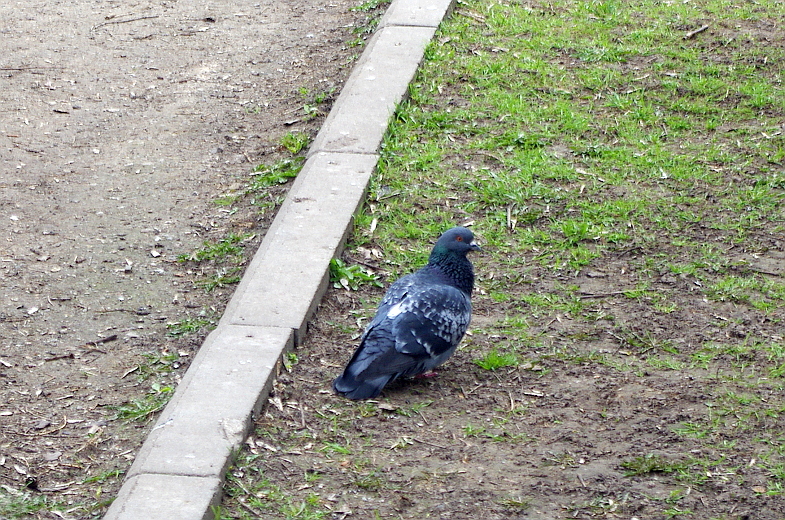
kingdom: Animalia
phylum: Chordata
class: Aves
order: Columbiformes
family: Columbidae
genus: Columba
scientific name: Columba livia
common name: Rock pigeon
